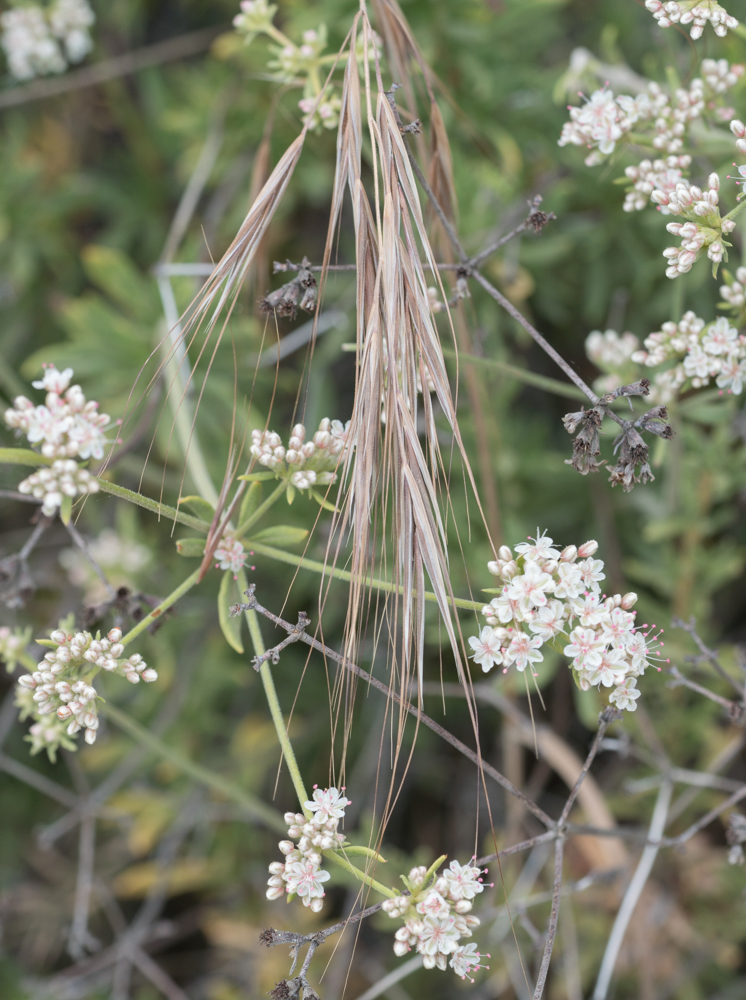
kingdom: Plantae
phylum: Tracheophyta
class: Liliopsida
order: Poales
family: Poaceae
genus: Bromus
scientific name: Bromus diandrus
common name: Ripgut brome
